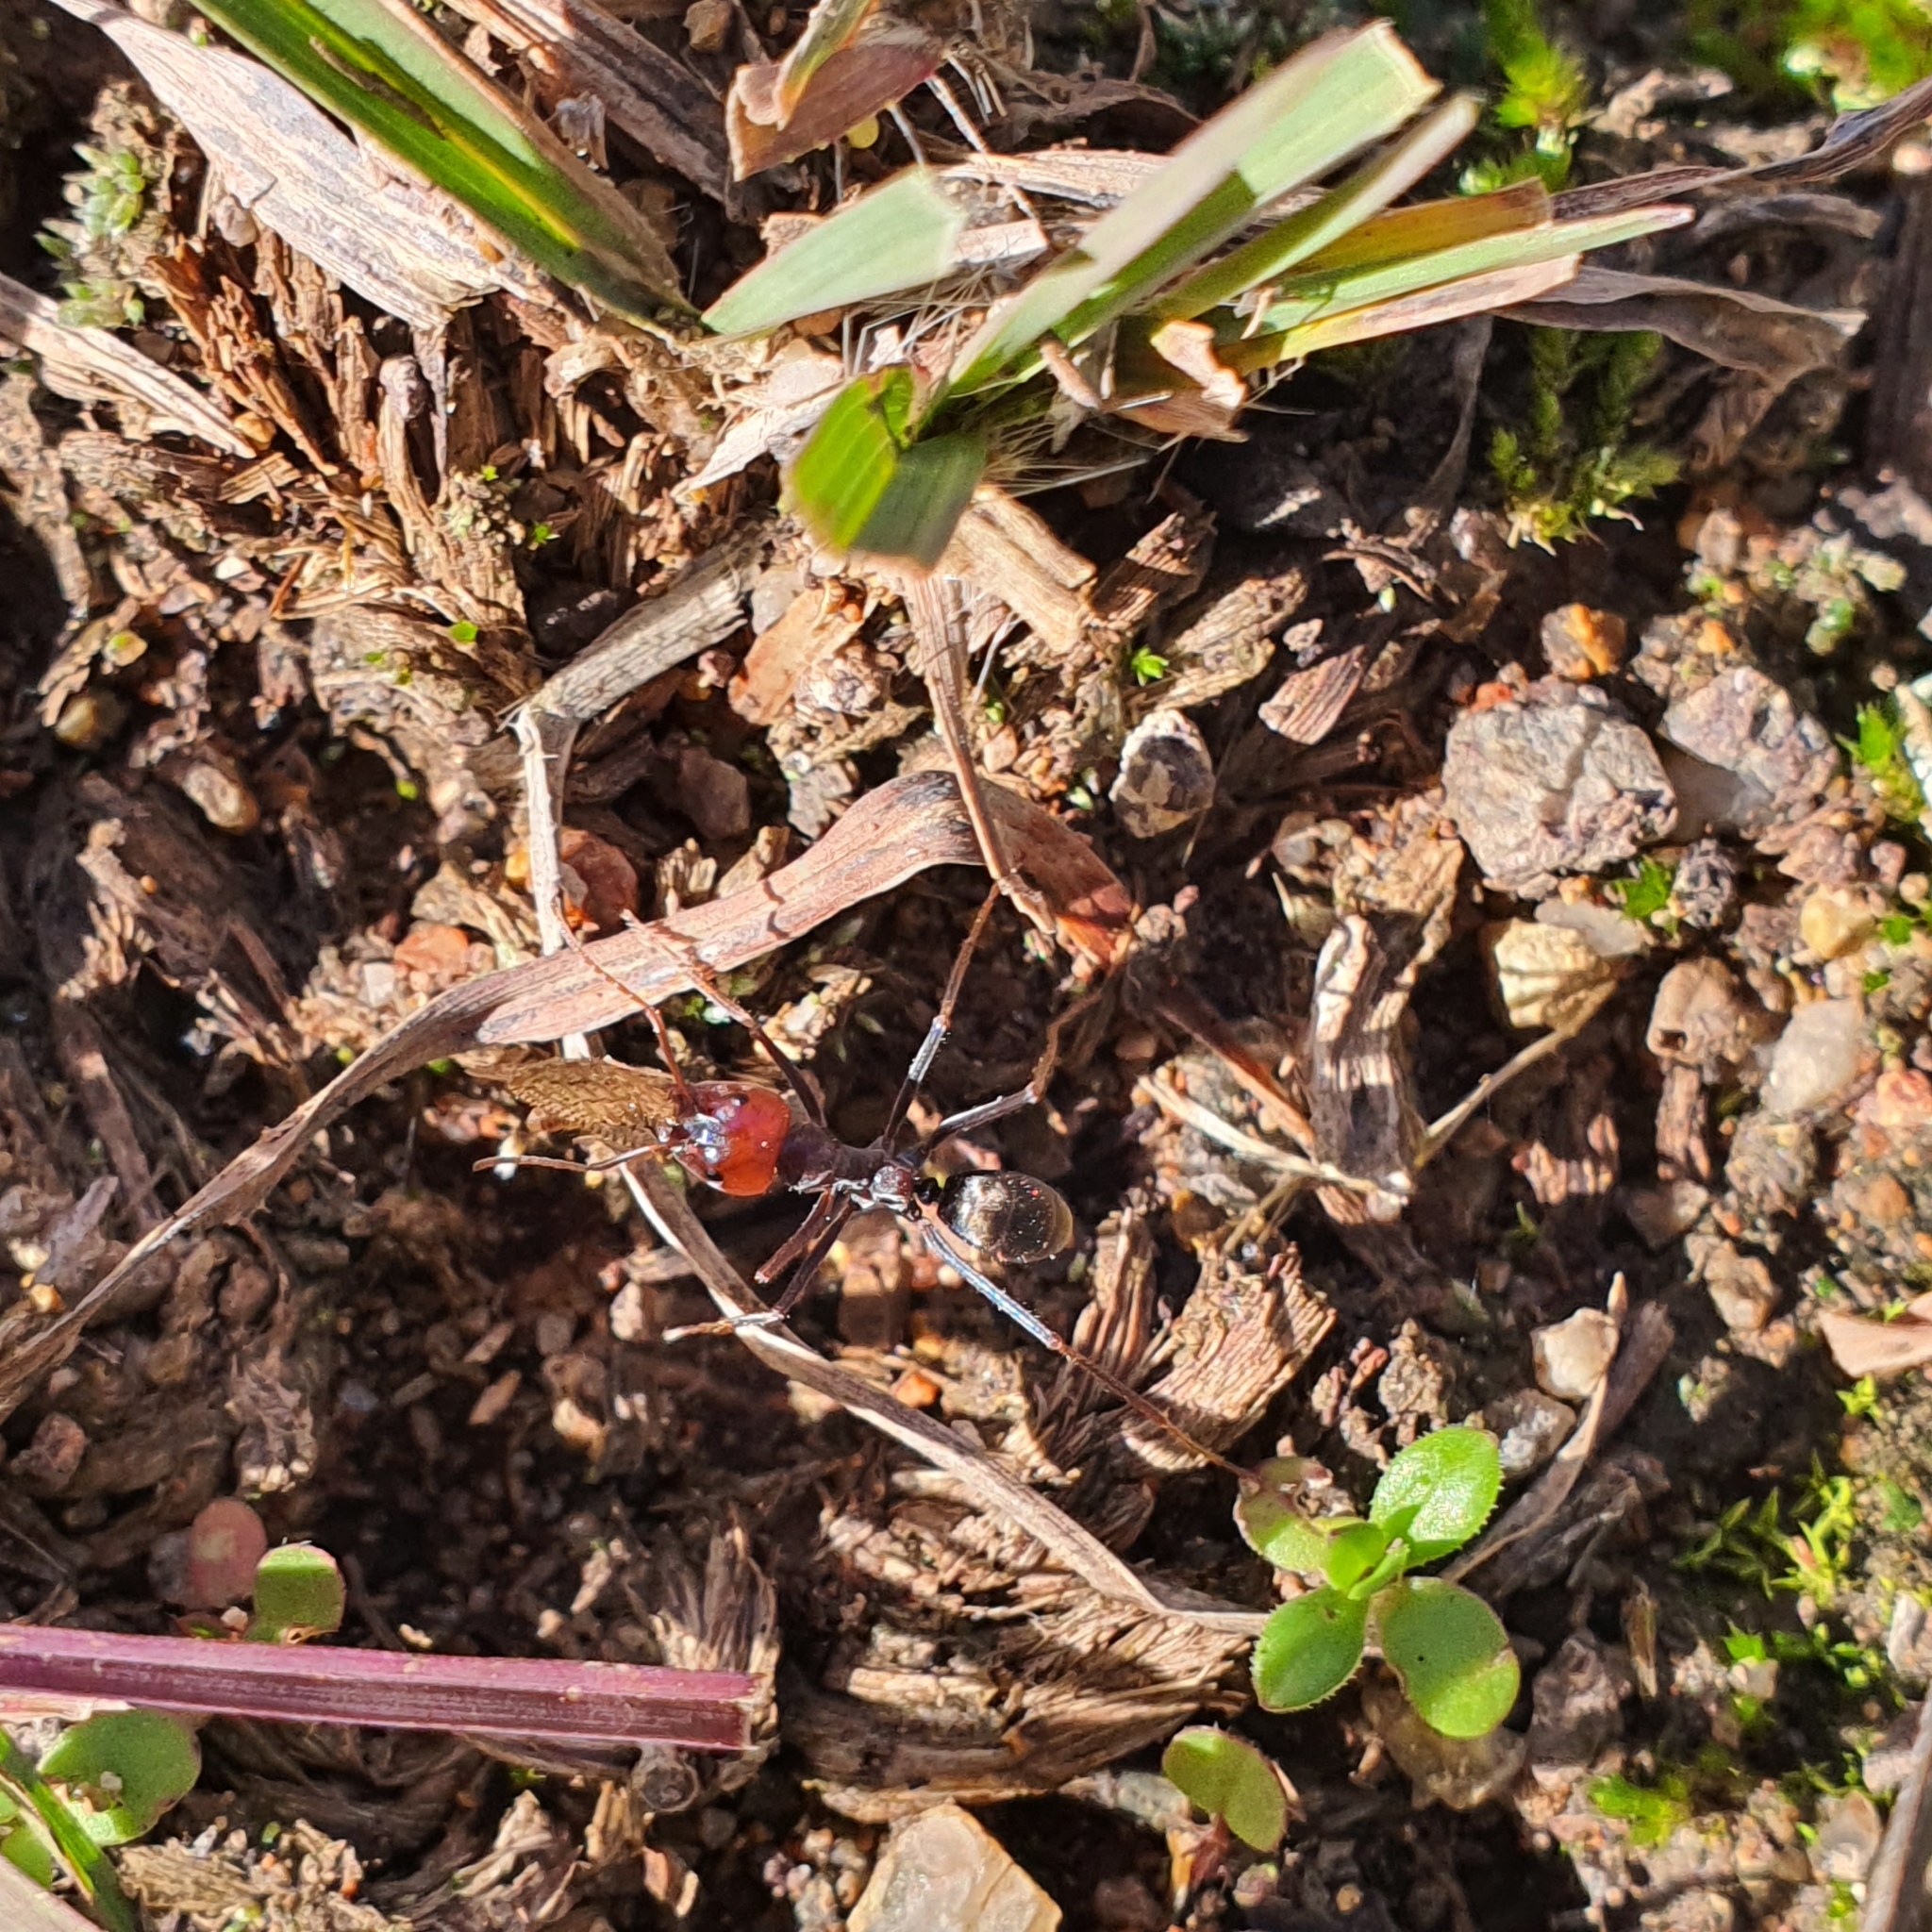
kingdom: Animalia
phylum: Arthropoda
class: Insecta
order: Hymenoptera
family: Formicidae
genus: Iridomyrmex
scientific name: Iridomyrmex purpureus
